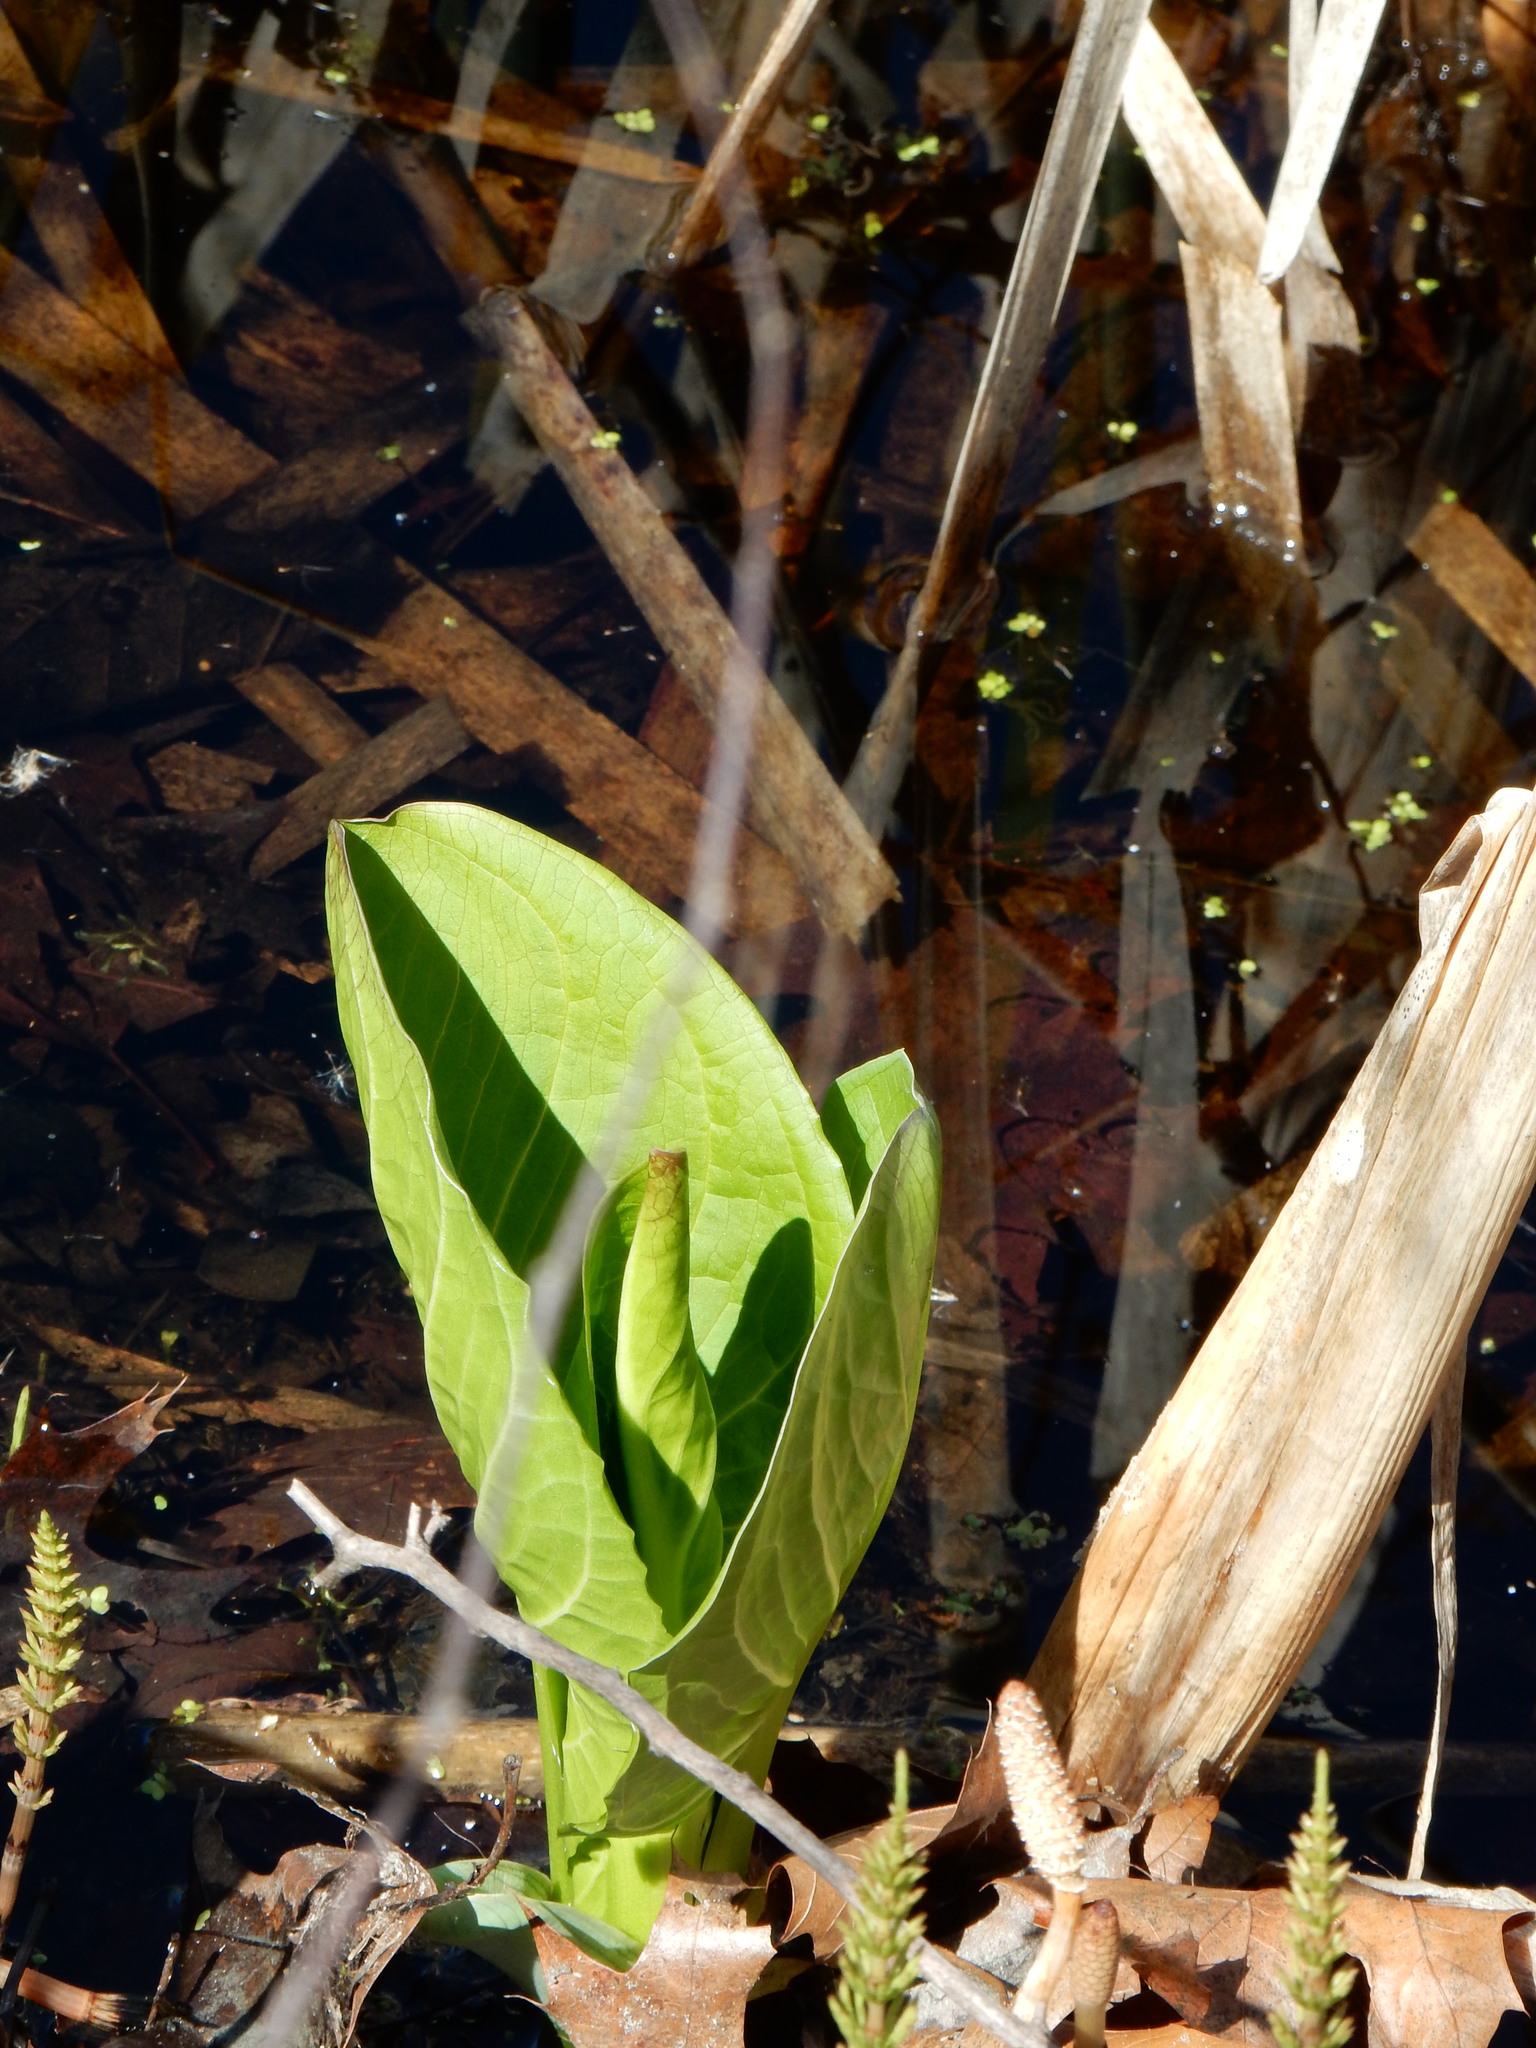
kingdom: Plantae
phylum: Tracheophyta
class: Liliopsida
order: Alismatales
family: Araceae
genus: Symplocarpus
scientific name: Symplocarpus foetidus
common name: Eastern skunk cabbage
